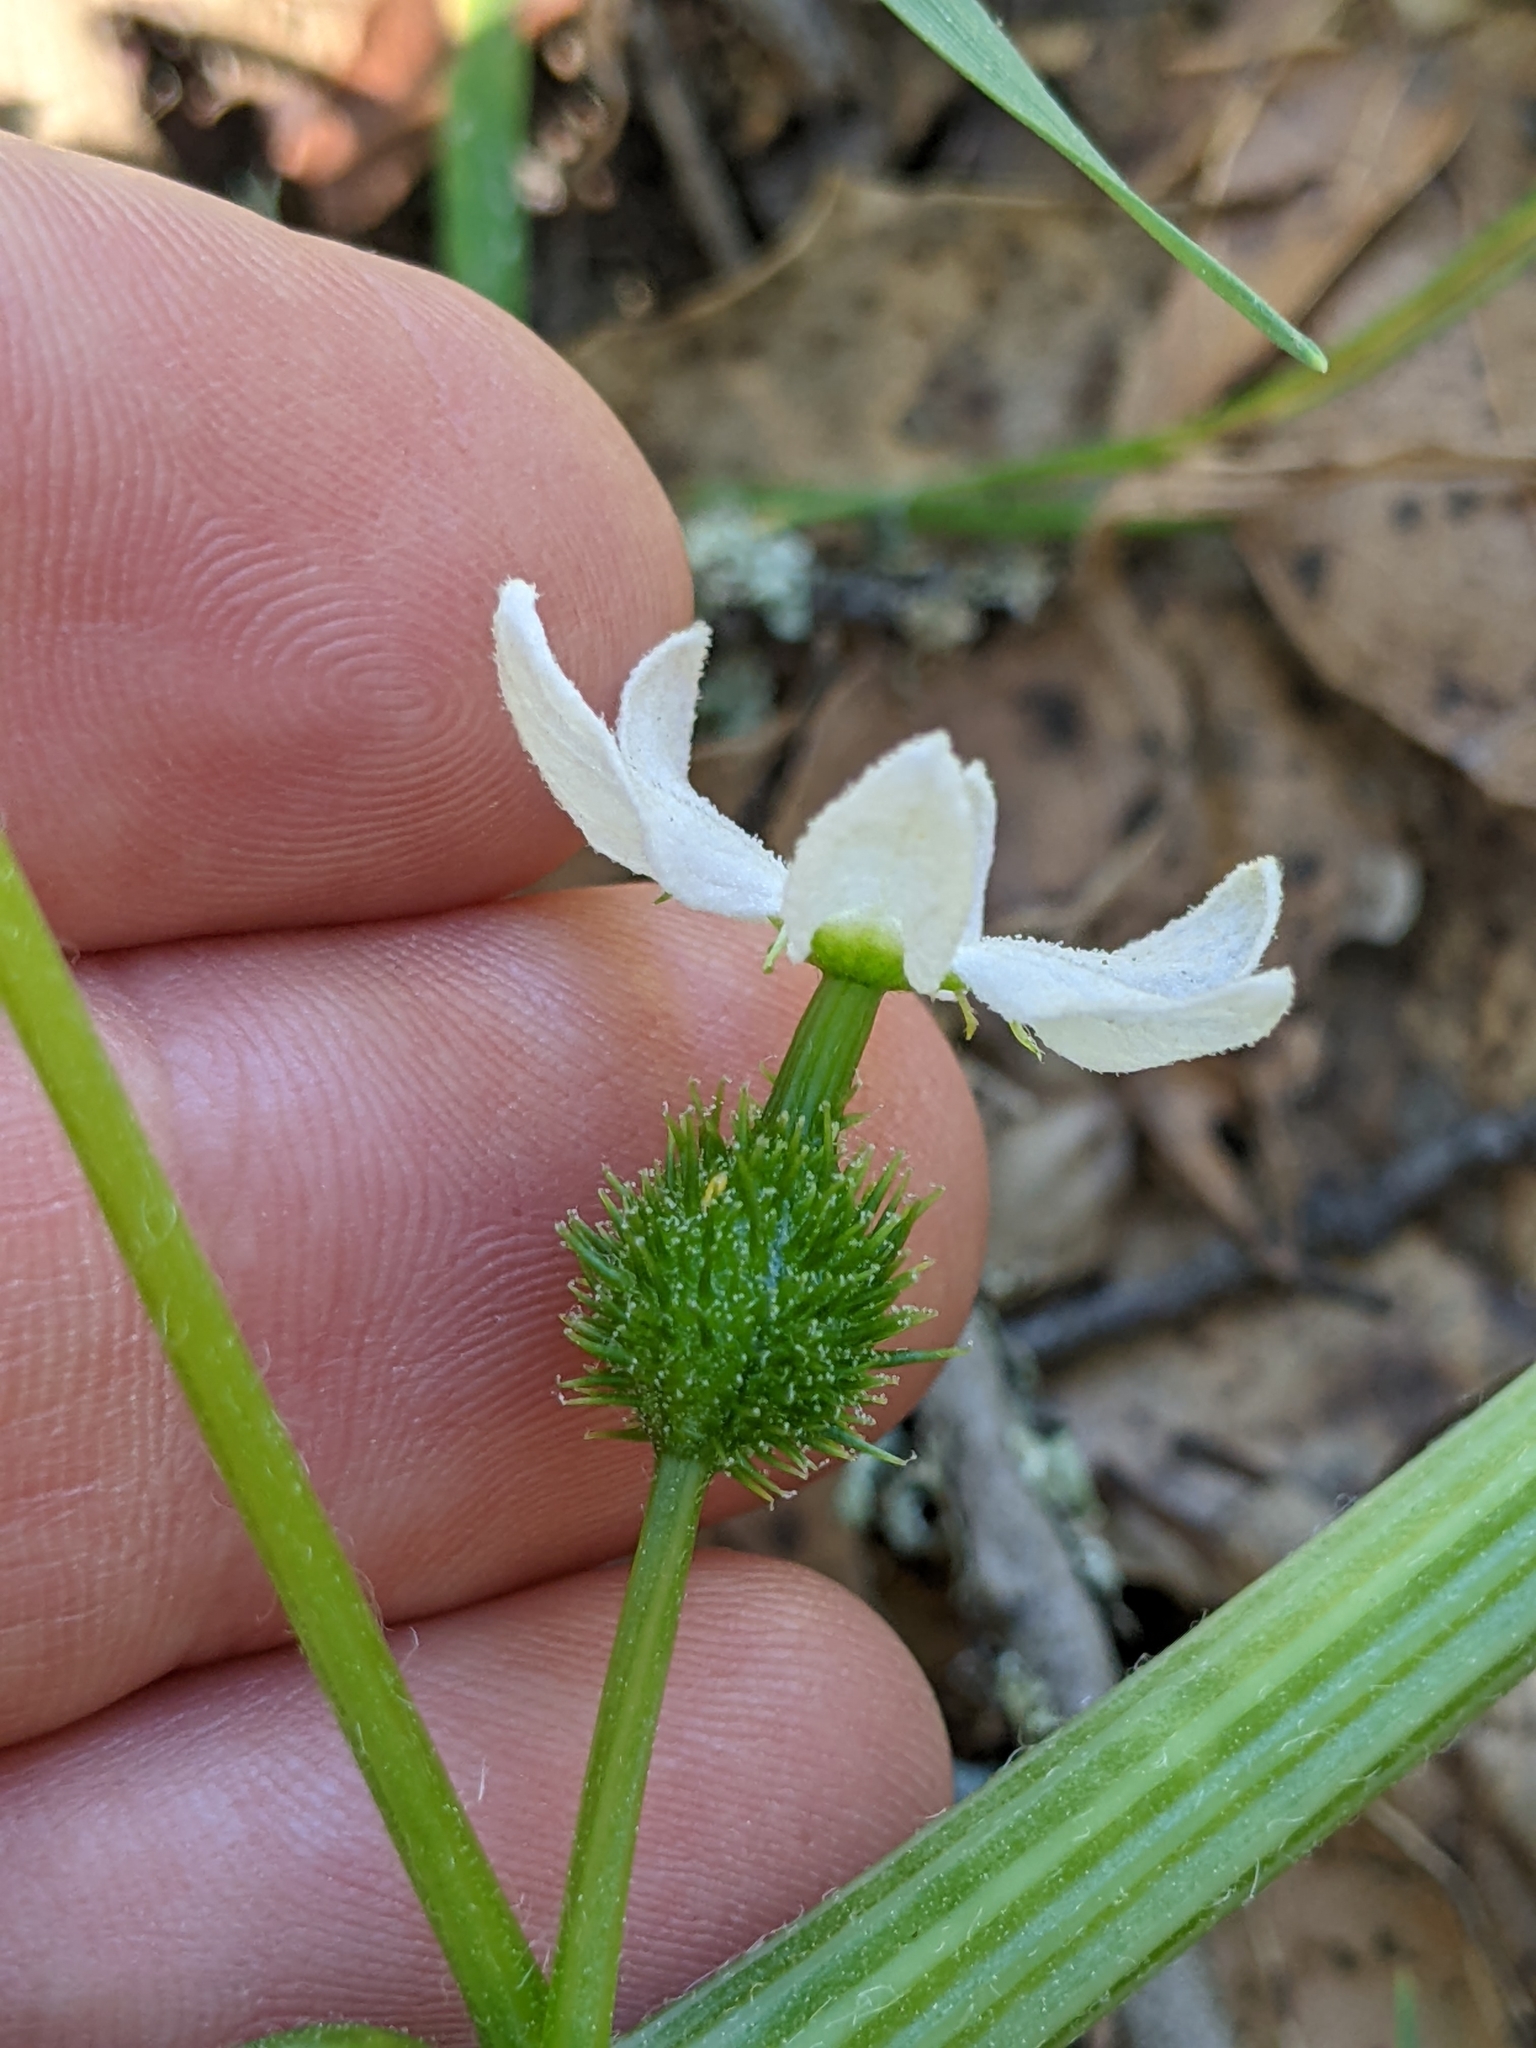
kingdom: Plantae
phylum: Tracheophyta
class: Magnoliopsida
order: Cucurbitales
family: Cucurbitaceae
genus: Marah
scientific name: Marah oregana
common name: Coastal manroot
